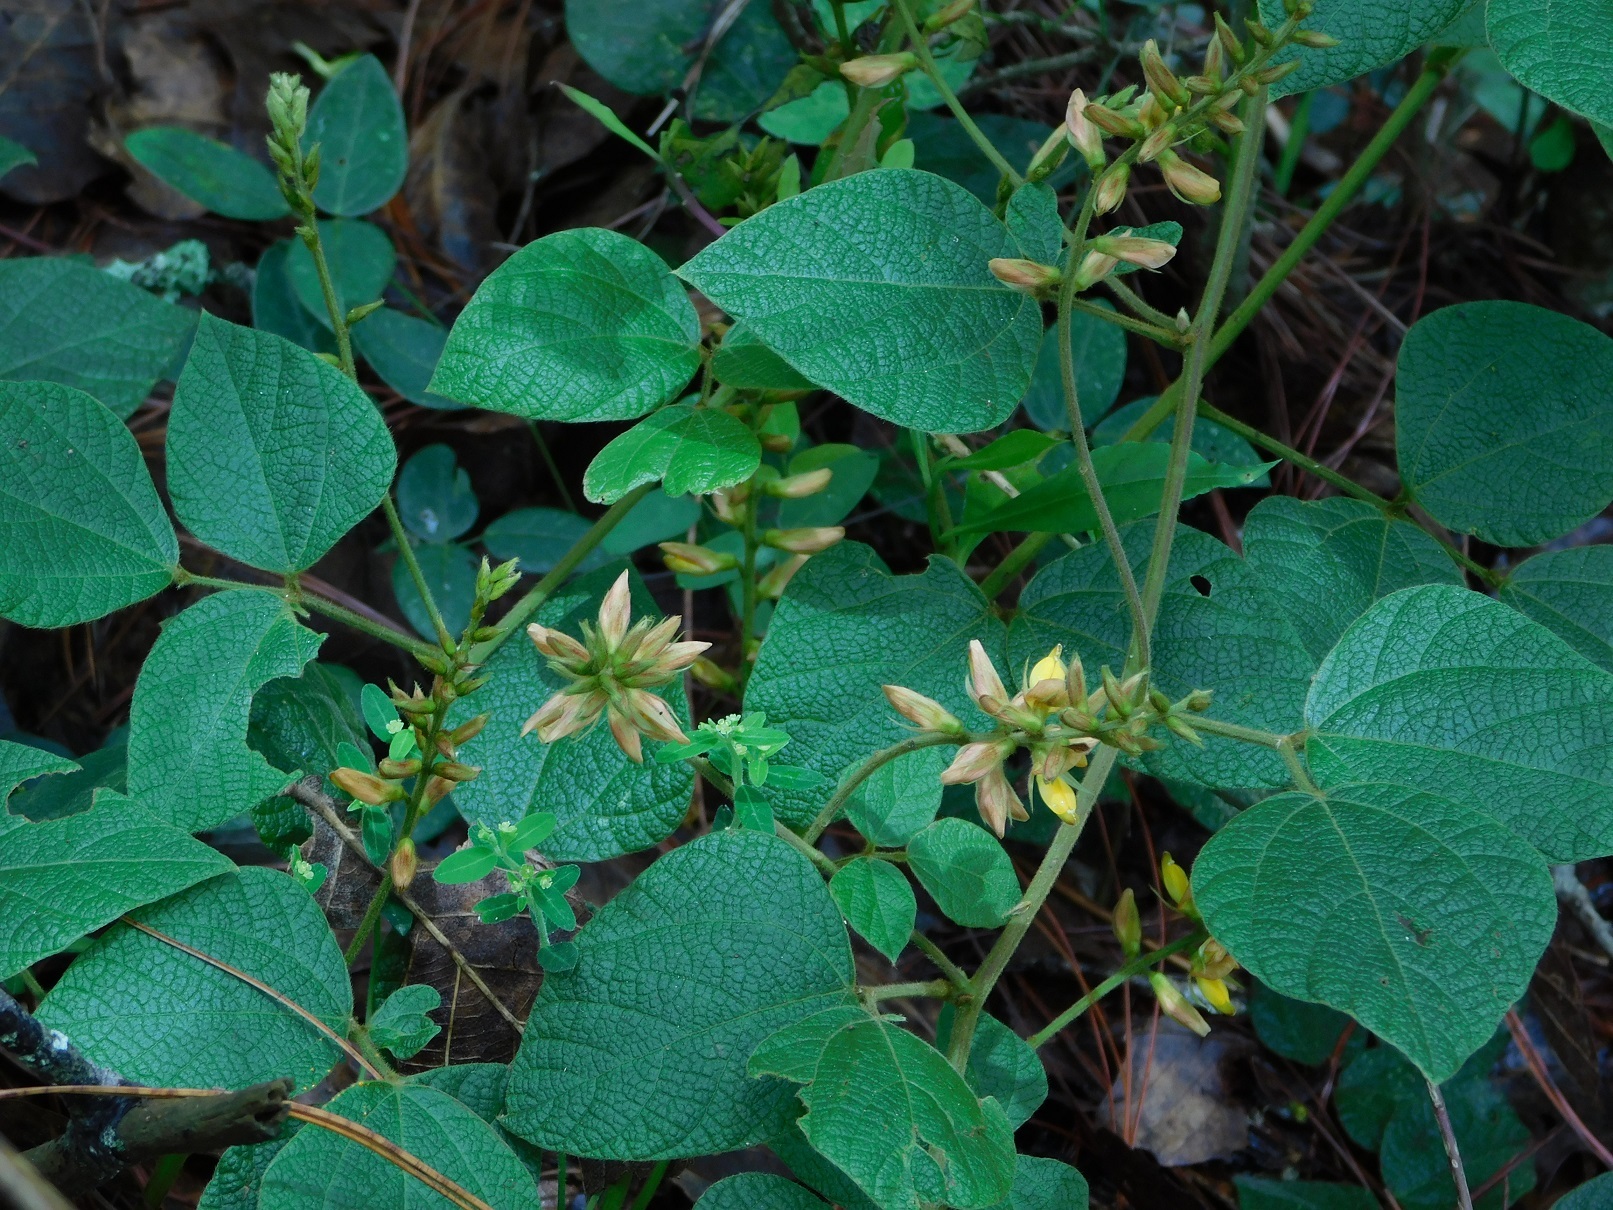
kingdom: Plantae
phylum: Tracheophyta
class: Magnoliopsida
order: Fabales
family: Fabaceae
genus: Rhynchosia
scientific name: Rhynchosia longeracemosa
